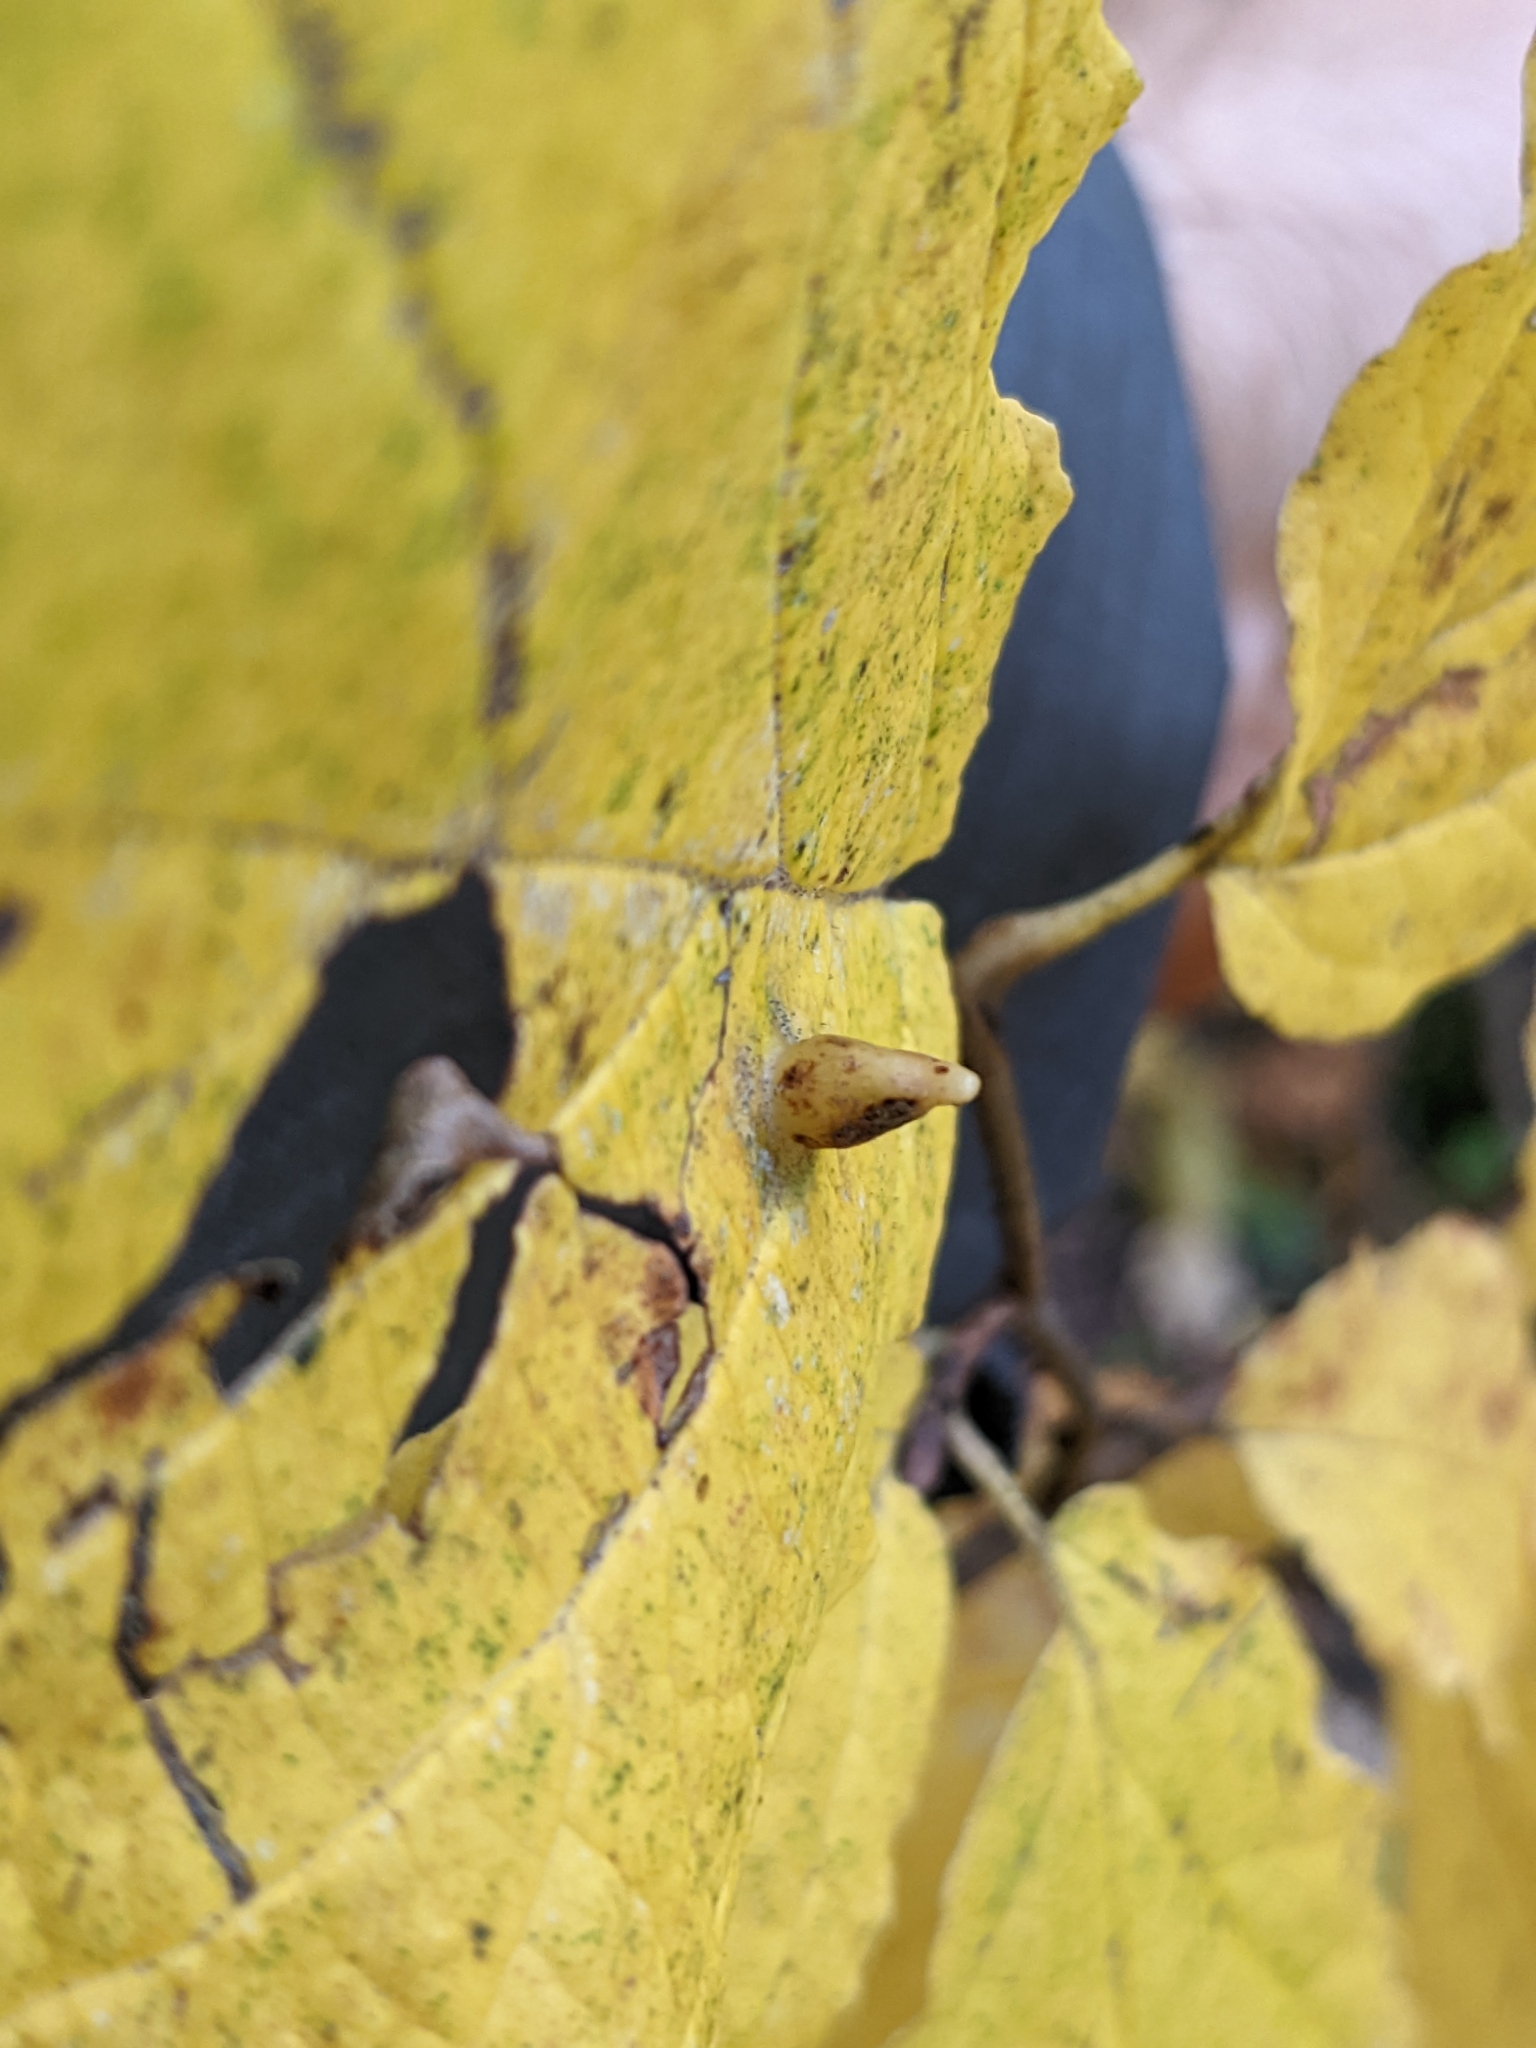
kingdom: Animalia
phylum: Arthropoda
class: Insecta
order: Hemiptera
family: Aphididae
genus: Hormaphis
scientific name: Hormaphis hamamelidis
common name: Witch-hazel cone gall aphid
